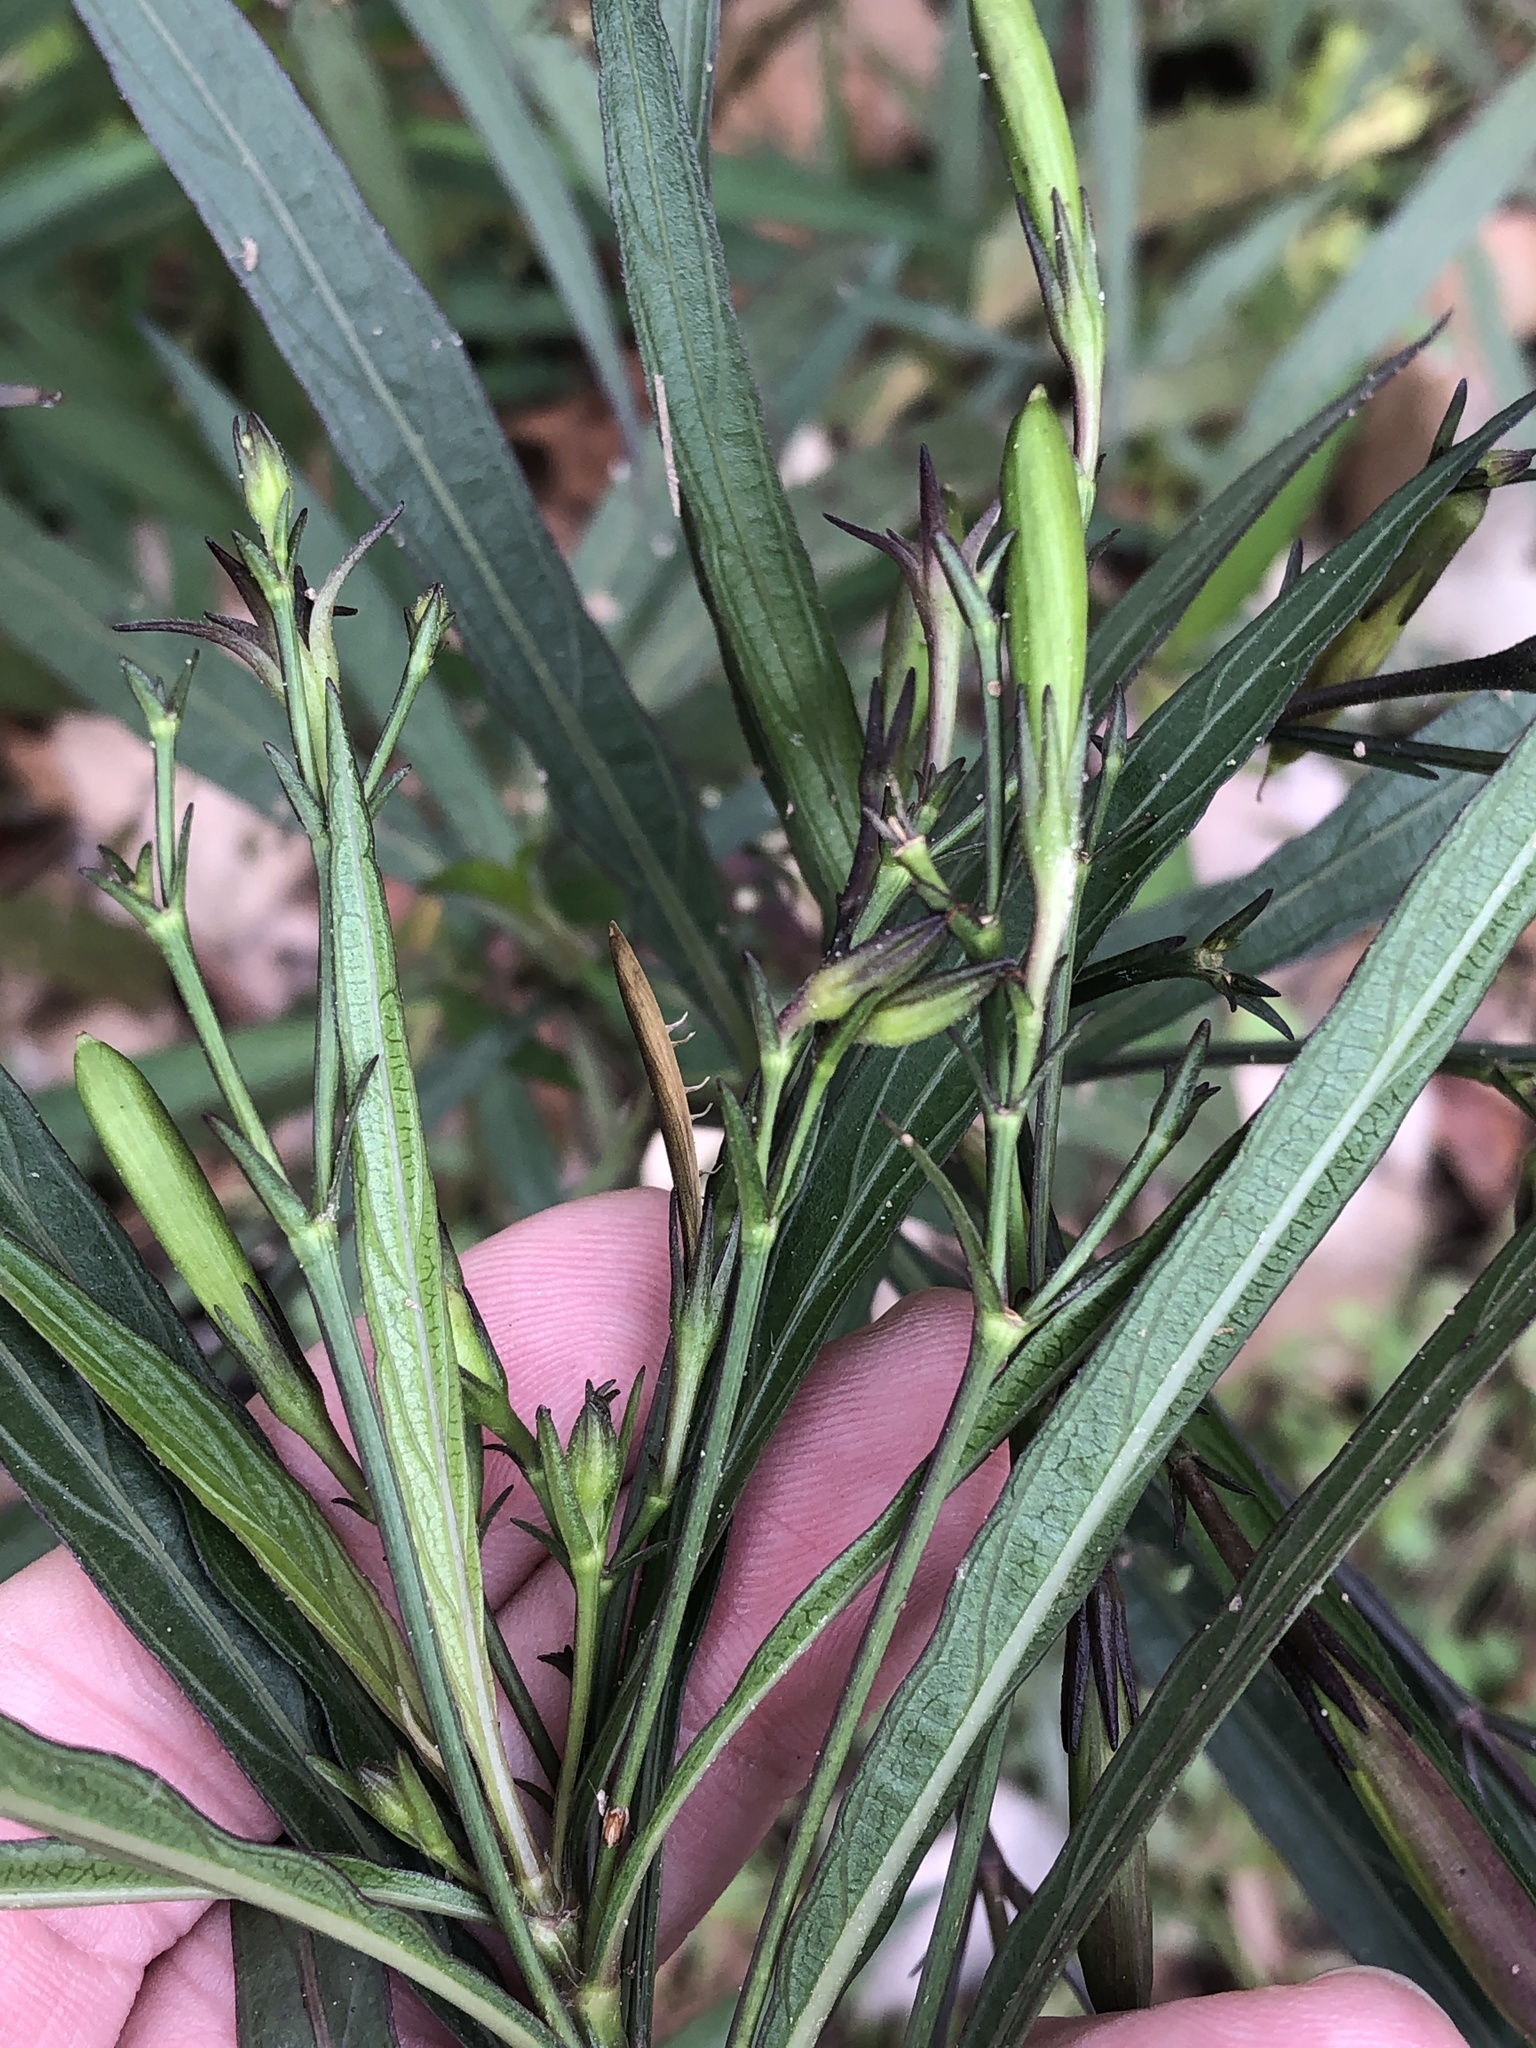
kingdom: Plantae
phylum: Tracheophyta
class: Magnoliopsida
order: Lamiales
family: Acanthaceae
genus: Ruellia
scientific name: Ruellia simplex
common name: Softseed wild petunia
